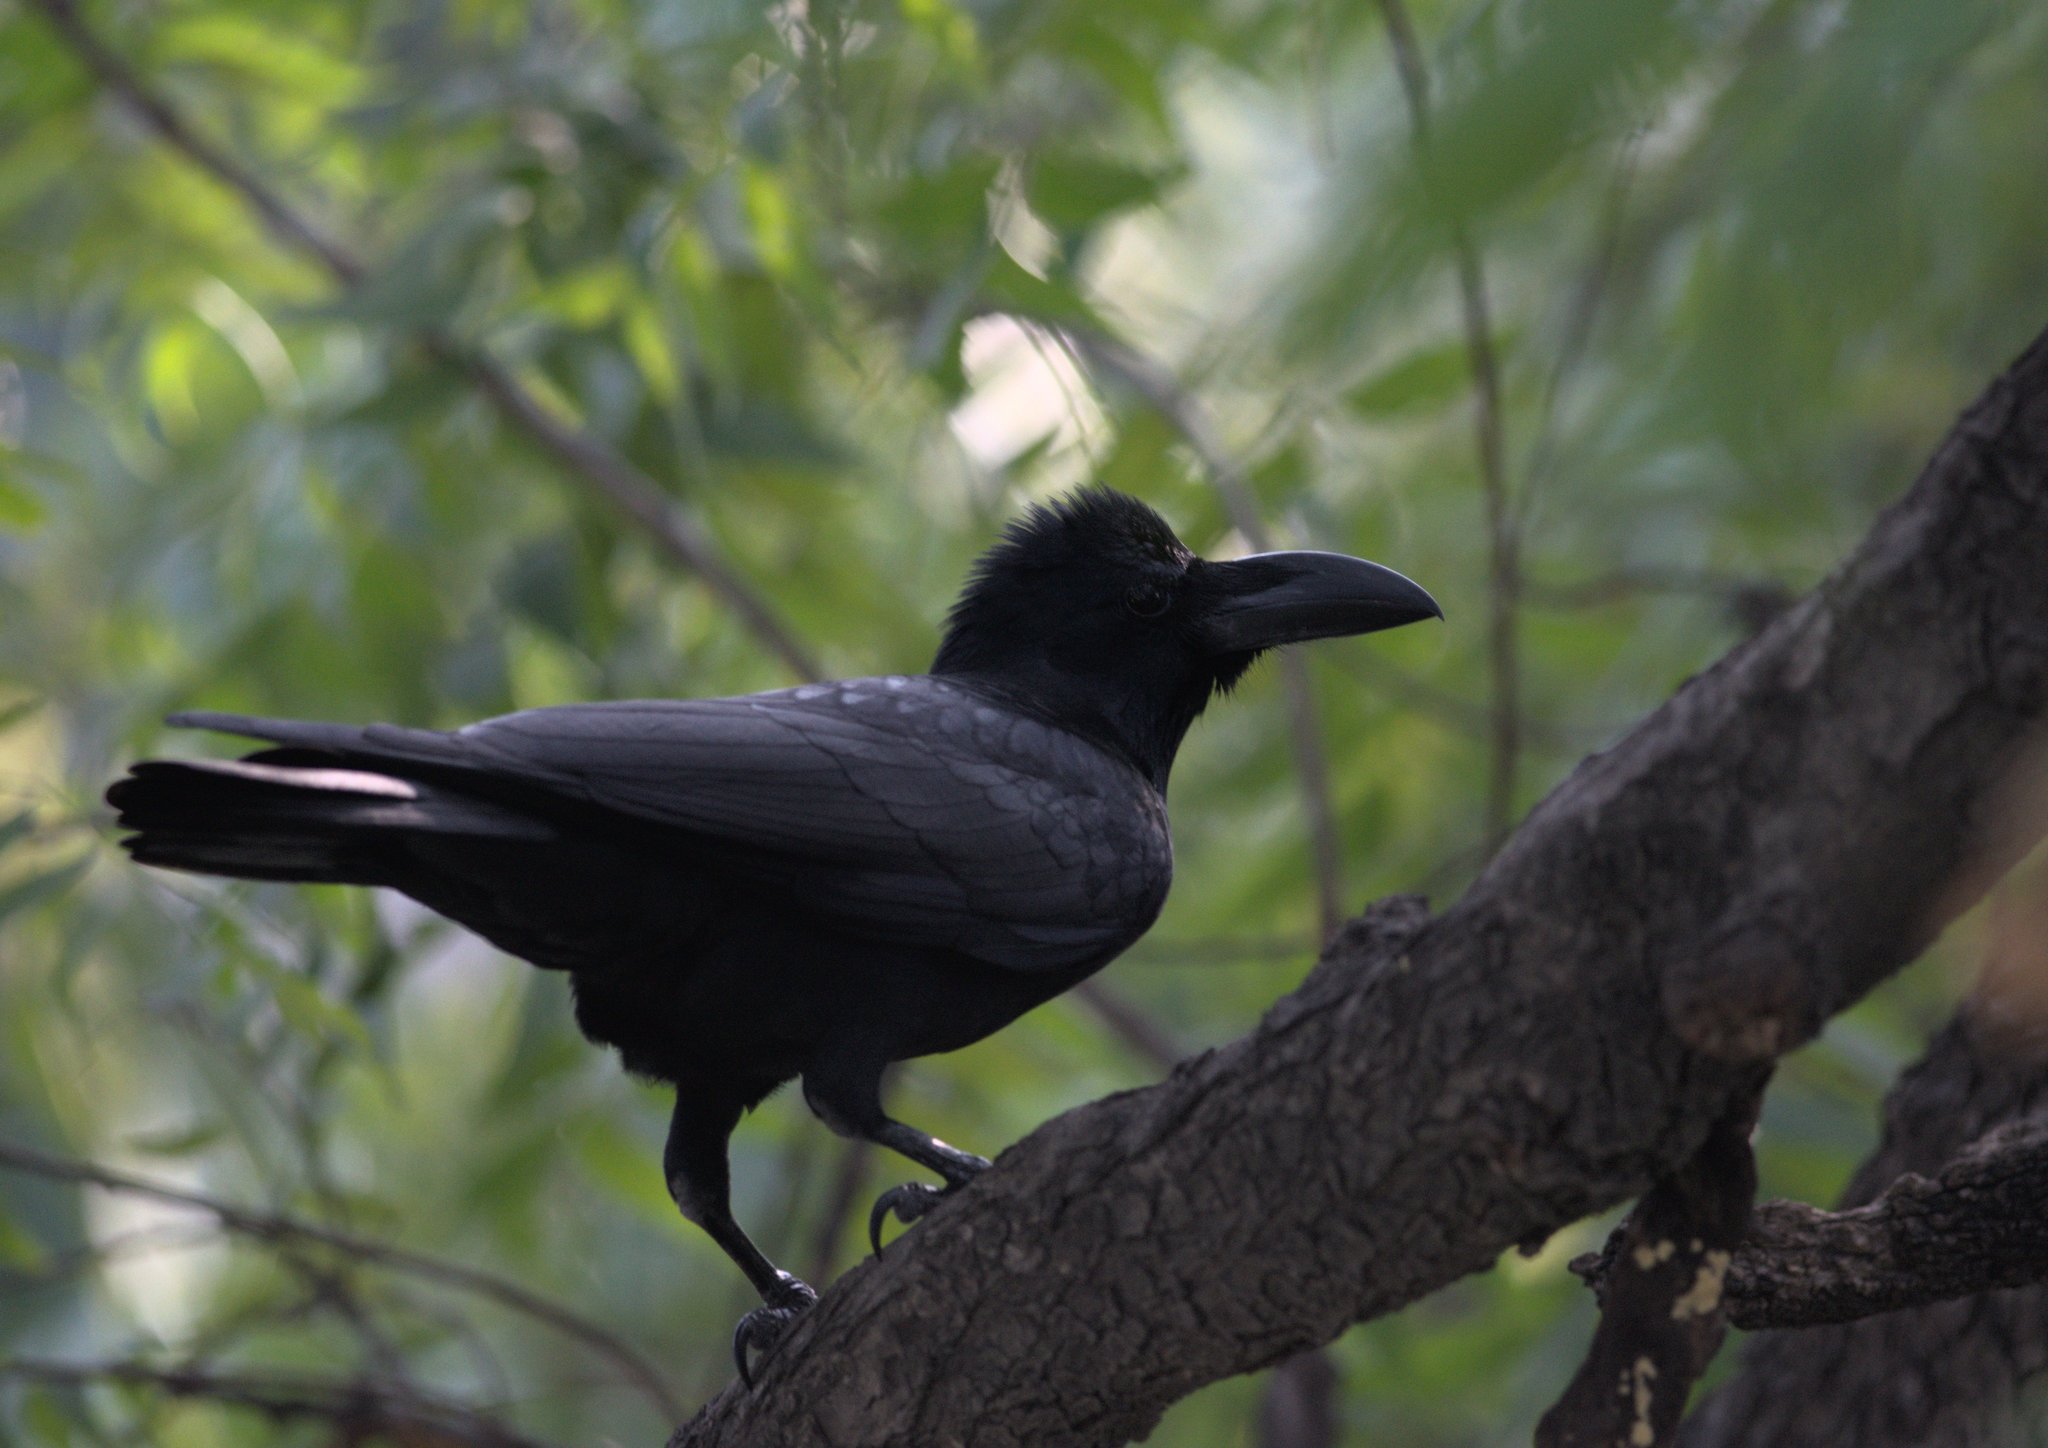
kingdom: Animalia
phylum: Chordata
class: Aves
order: Passeriformes
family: Corvidae
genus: Corvus
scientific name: Corvus macrorhynchos
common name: Large-billed crow
